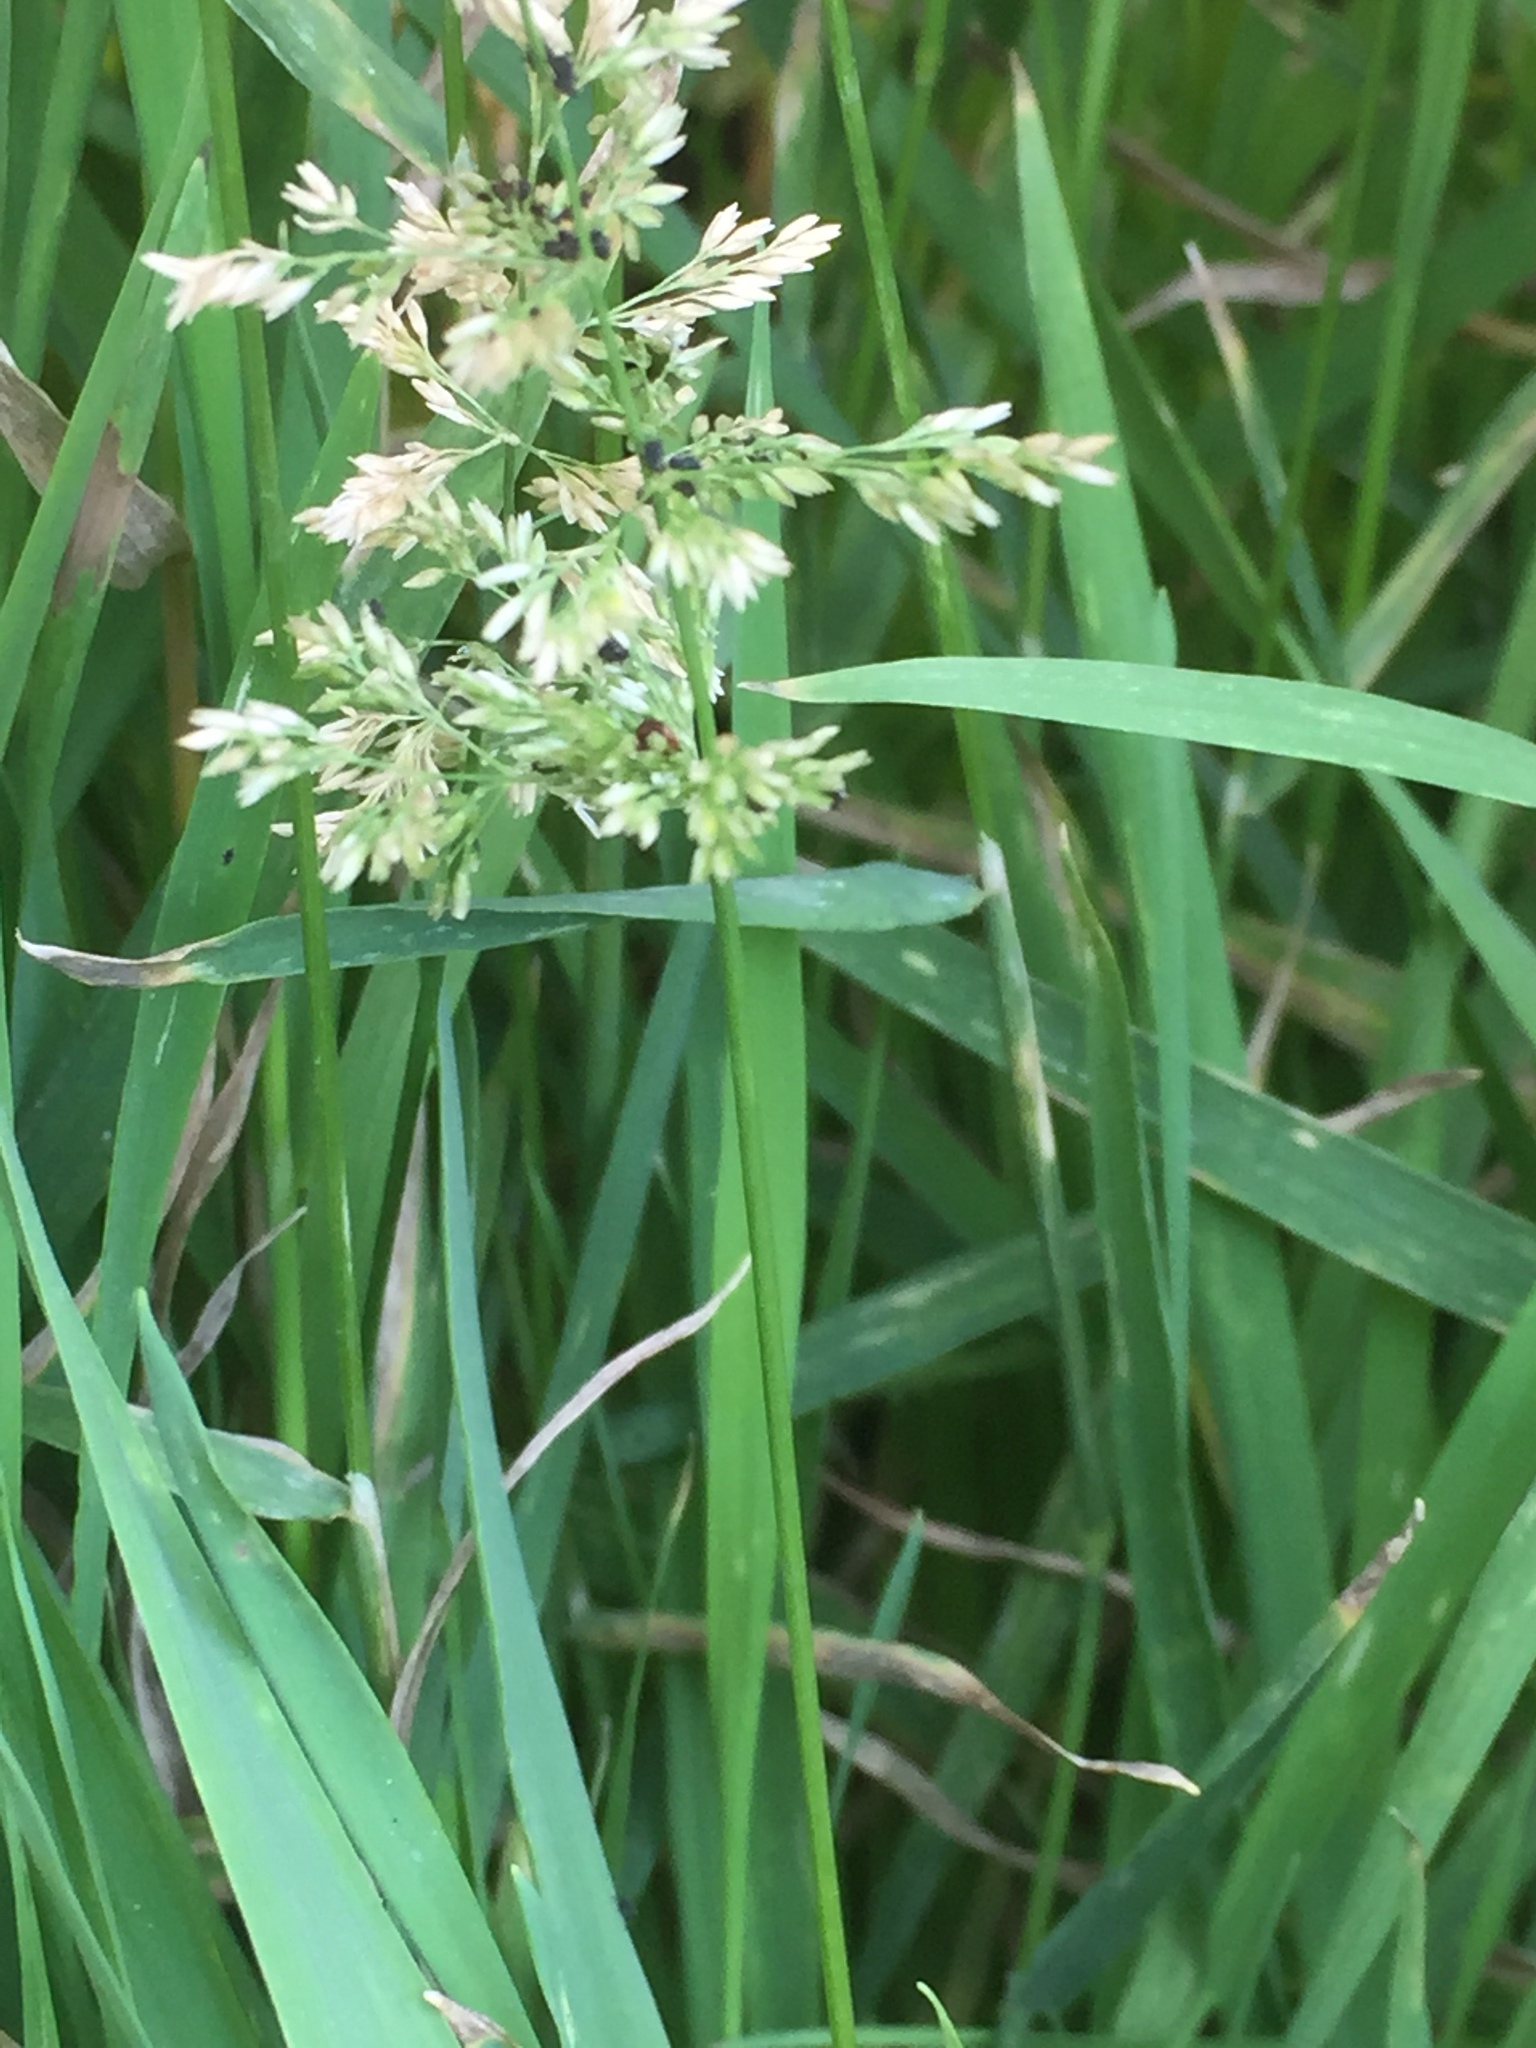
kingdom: Plantae
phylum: Tracheophyta
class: Liliopsida
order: Poales
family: Poaceae
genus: Polypogon
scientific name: Polypogon viridis
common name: Water bent
